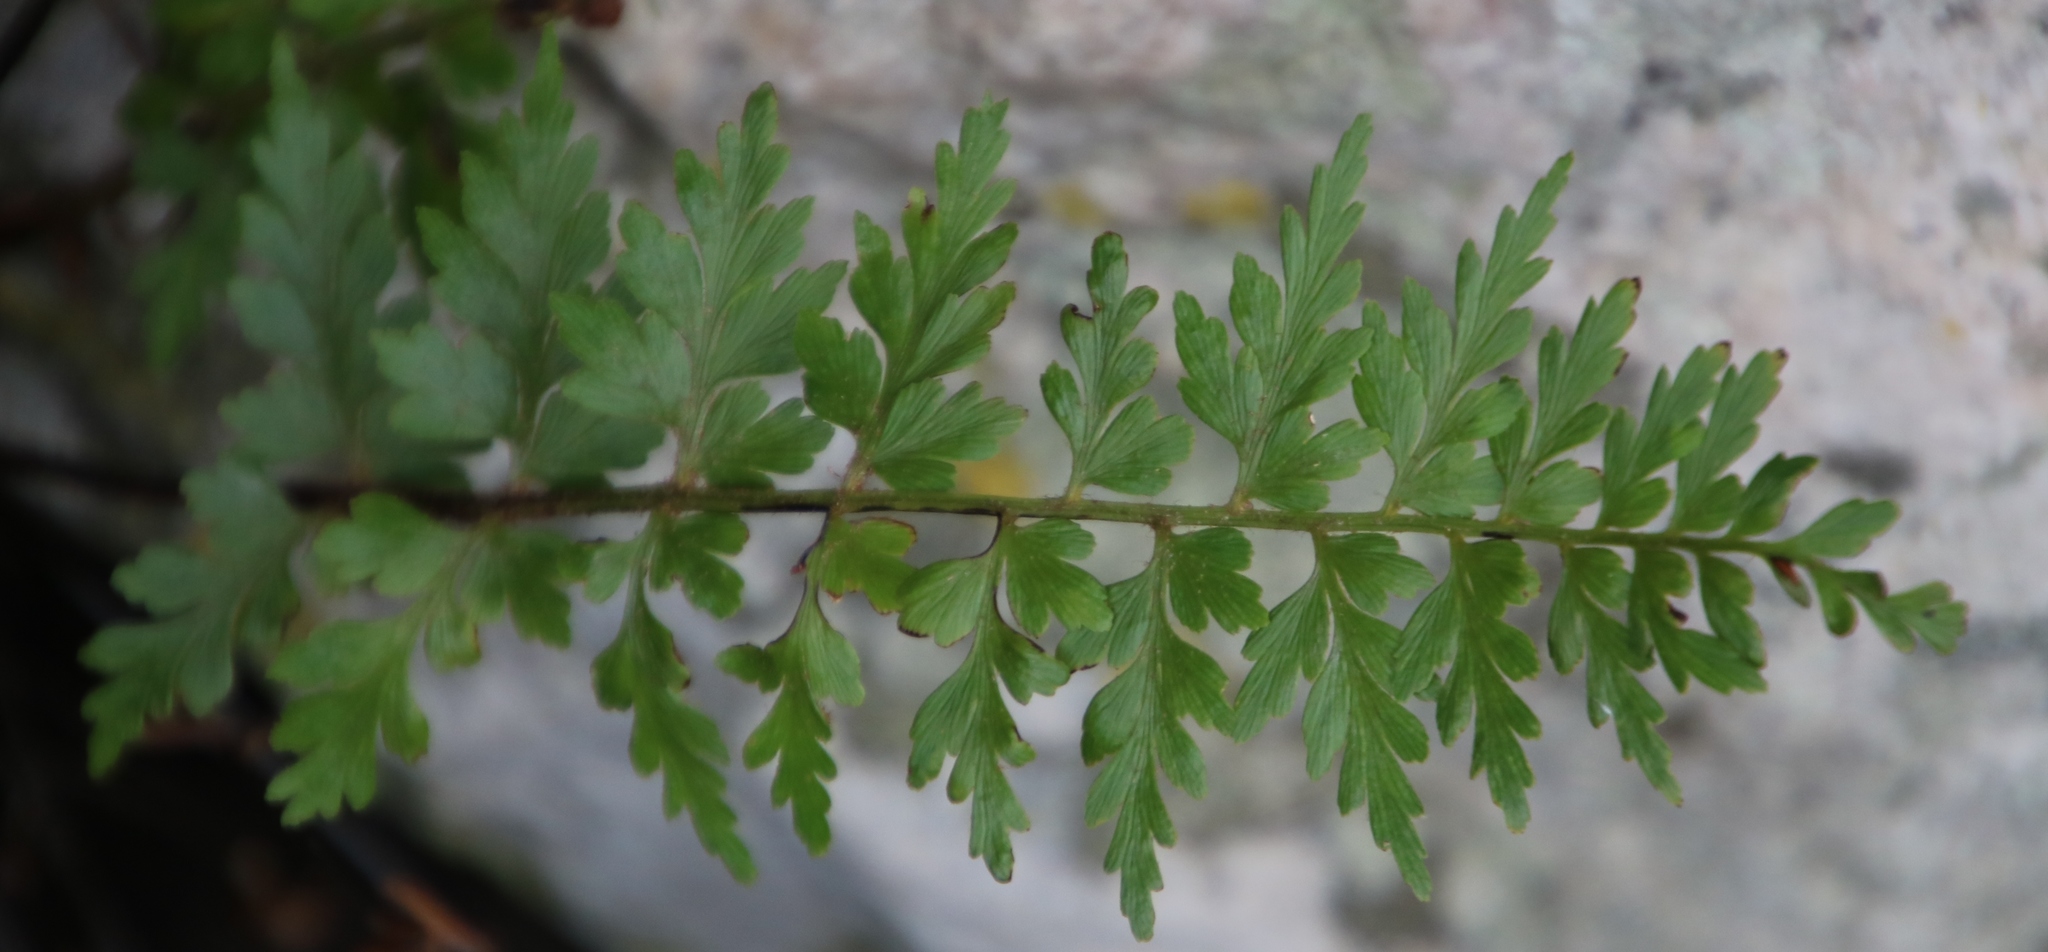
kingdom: Plantae
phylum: Tracheophyta
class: Polypodiopsida
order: Polypodiales
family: Aspleniaceae
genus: Asplenium
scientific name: Asplenium aethiopicum
